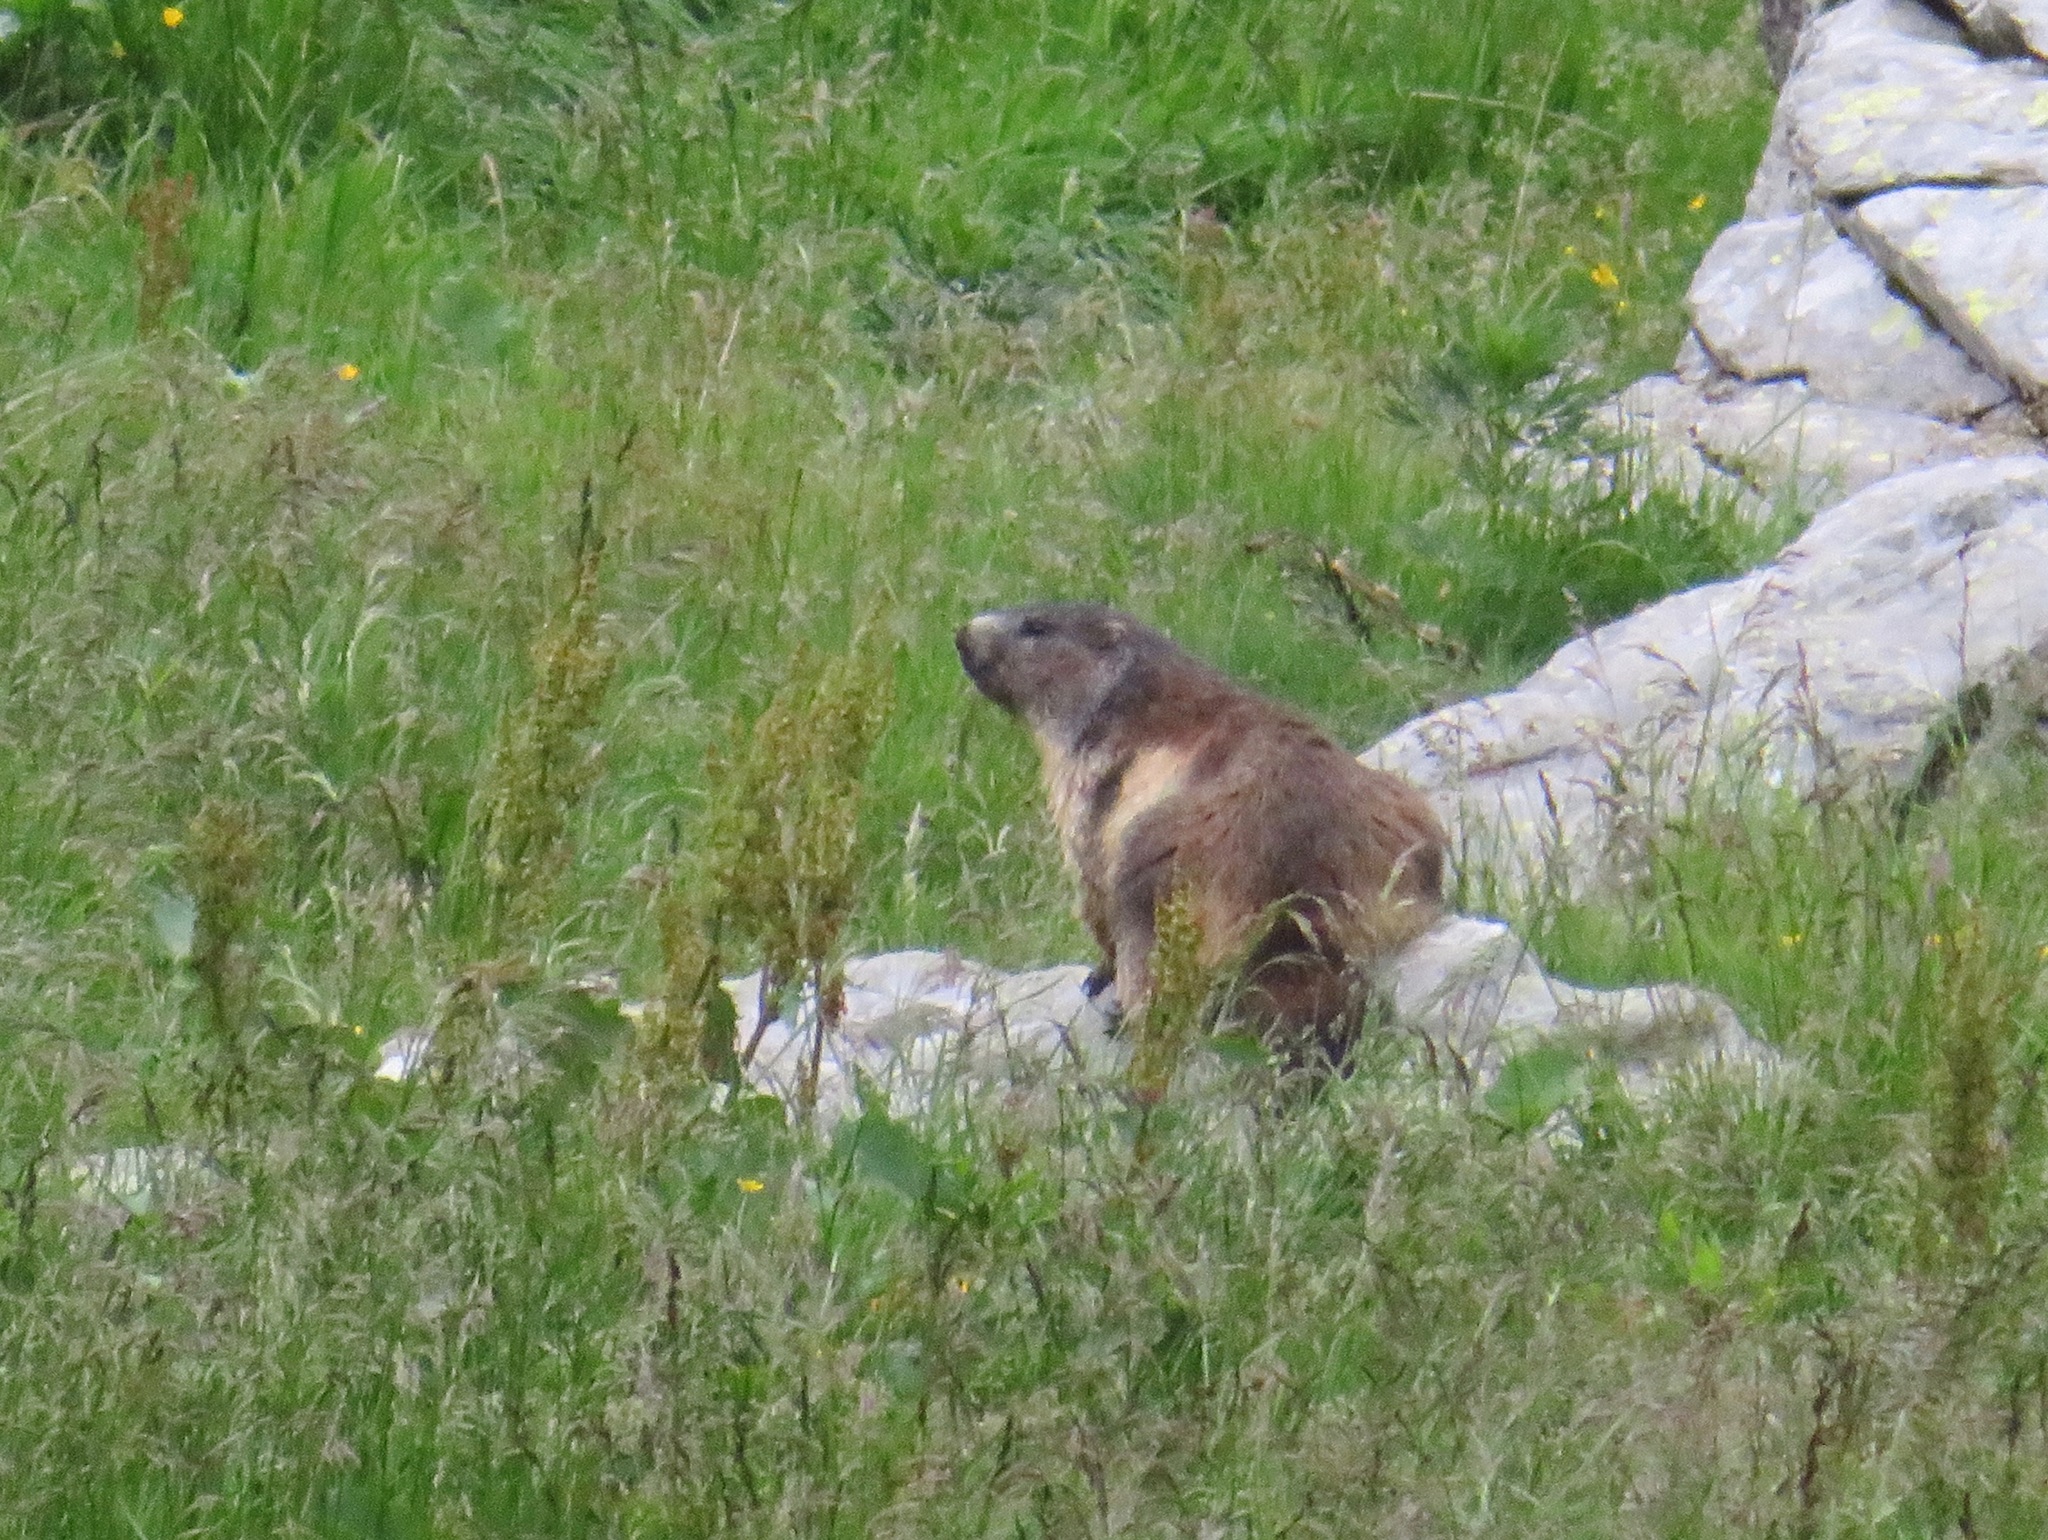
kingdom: Animalia
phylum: Chordata
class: Mammalia
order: Rodentia
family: Sciuridae
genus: Marmota
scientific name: Marmota marmota
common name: Alpine marmot
